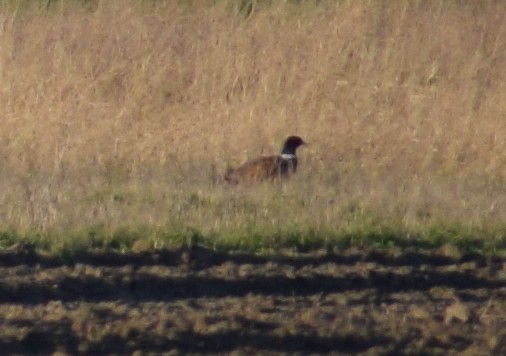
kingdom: Animalia
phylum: Chordata
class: Aves
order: Galliformes
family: Phasianidae
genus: Phasianus
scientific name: Phasianus colchicus
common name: Common pheasant
